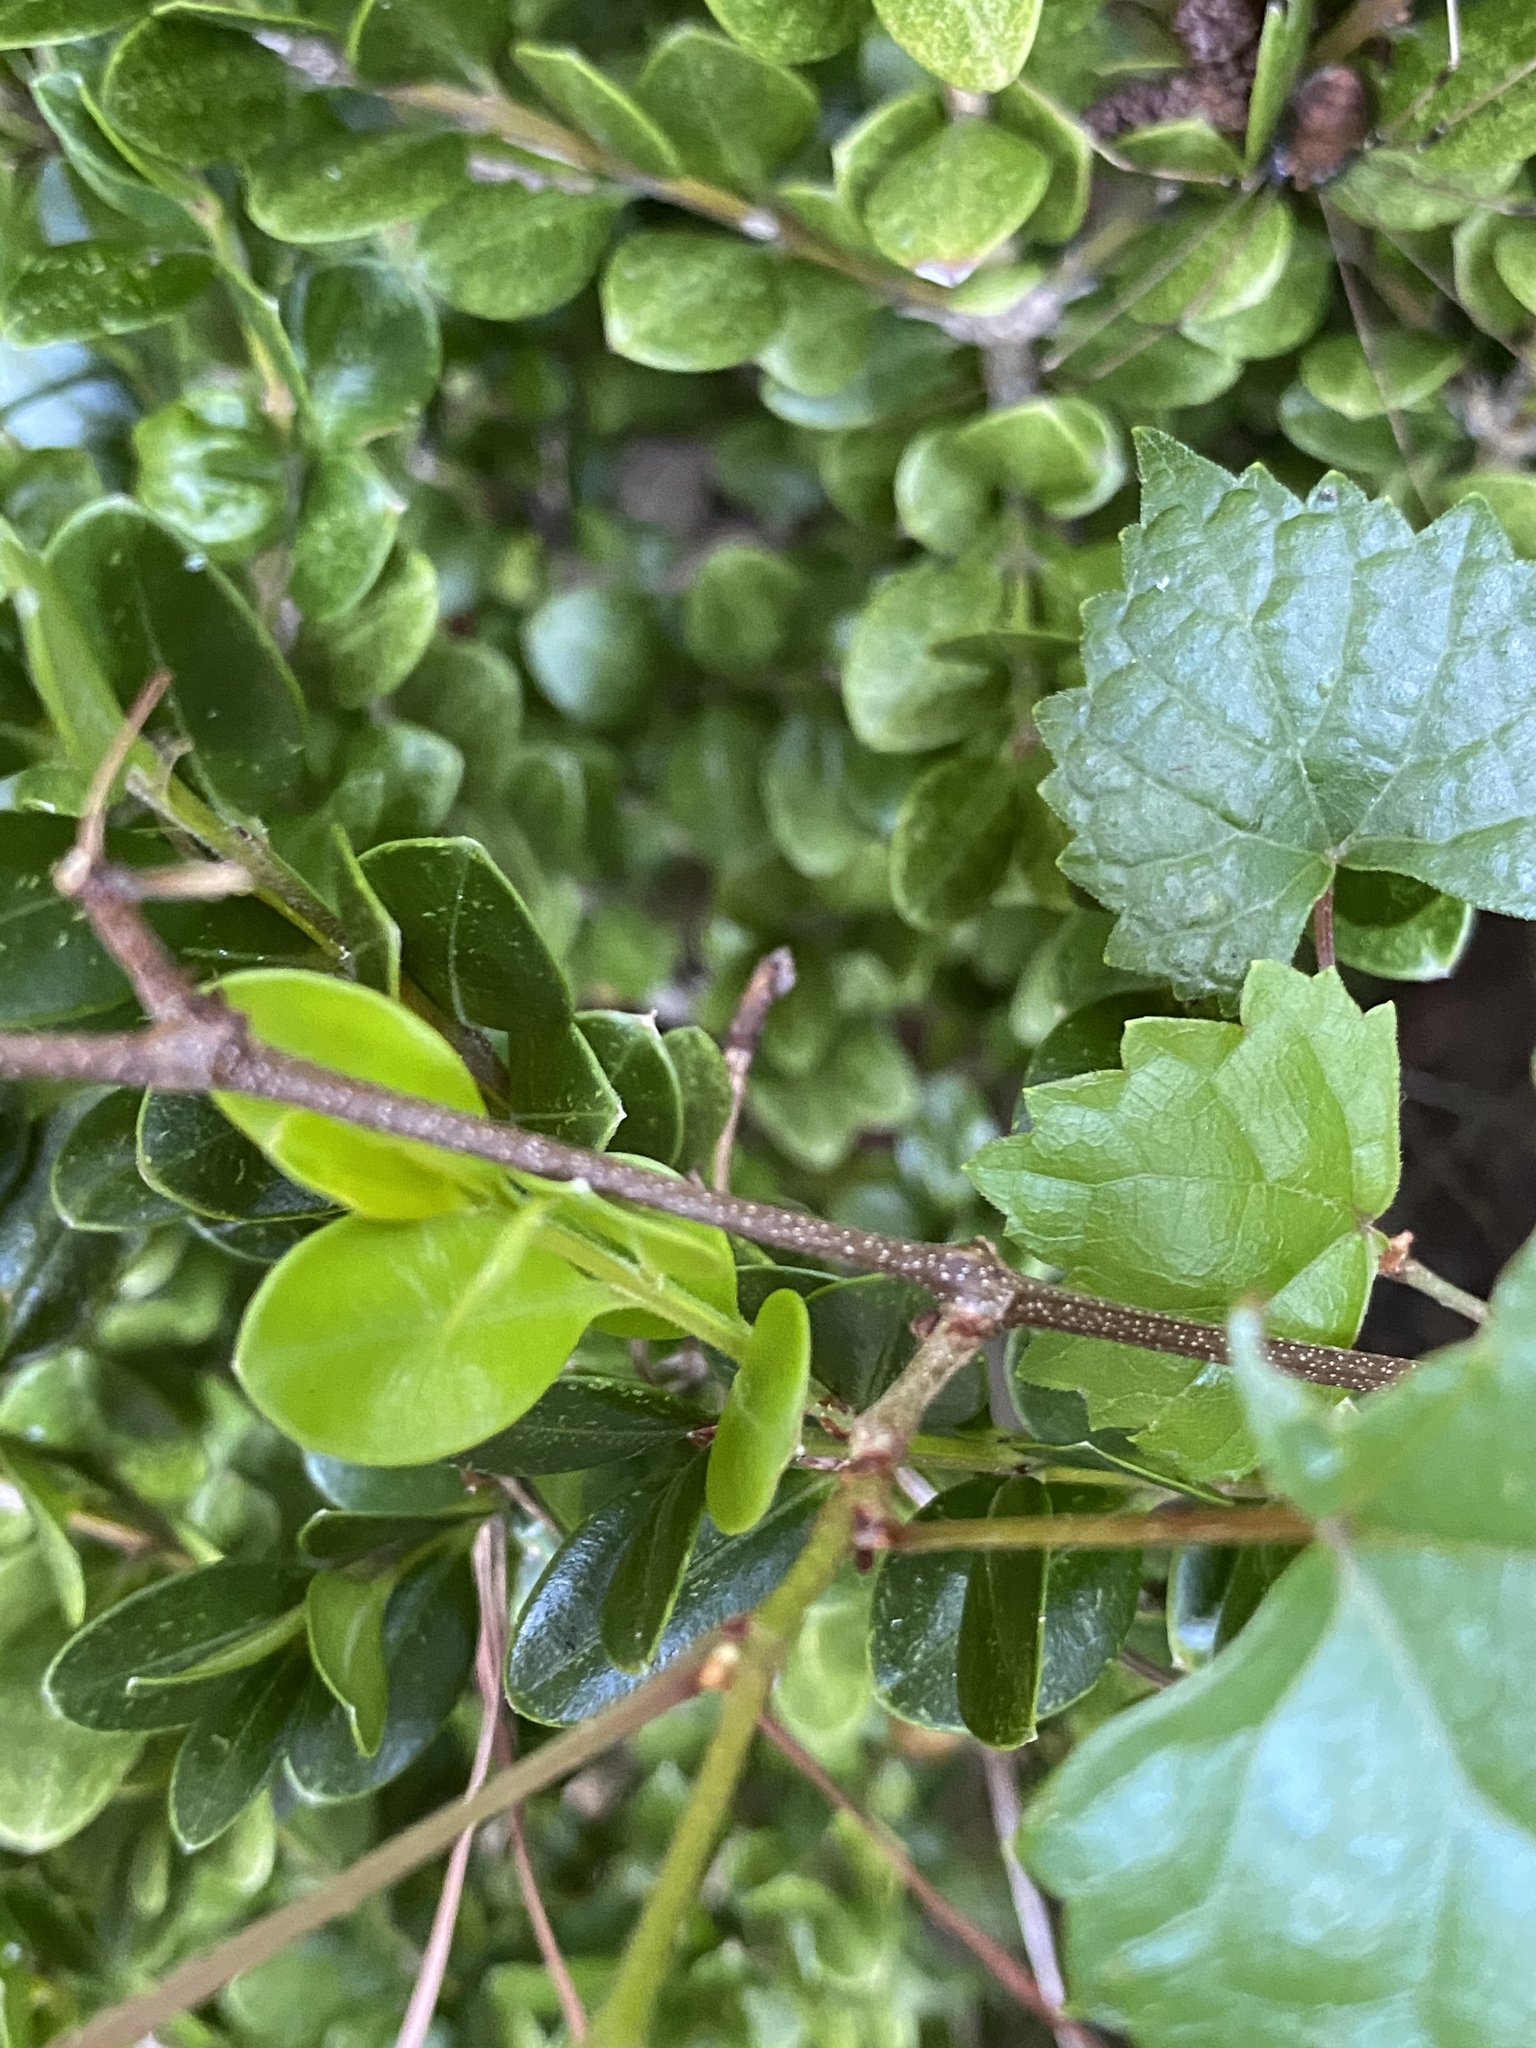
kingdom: Plantae
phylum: Tracheophyta
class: Magnoliopsida
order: Vitales
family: Vitaceae
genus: Vitis
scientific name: Vitis rotundifolia
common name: Muscadine grape
